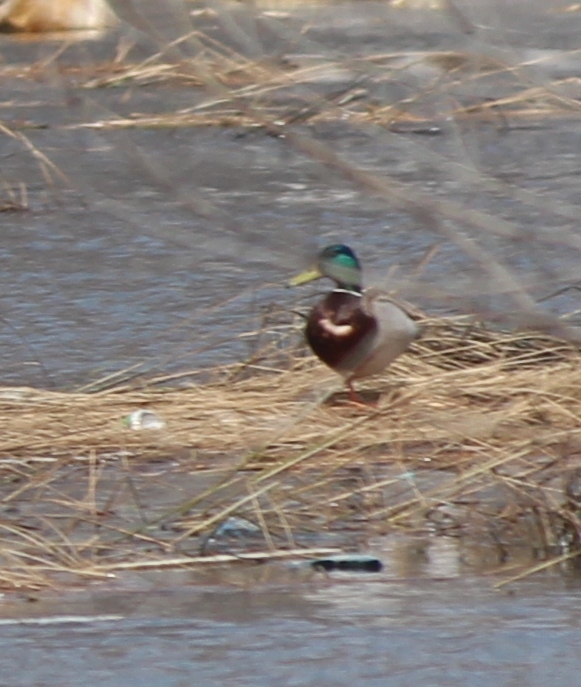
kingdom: Animalia
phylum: Chordata
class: Aves
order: Anseriformes
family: Anatidae
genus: Anas
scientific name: Anas platyrhynchos
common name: Mallard
